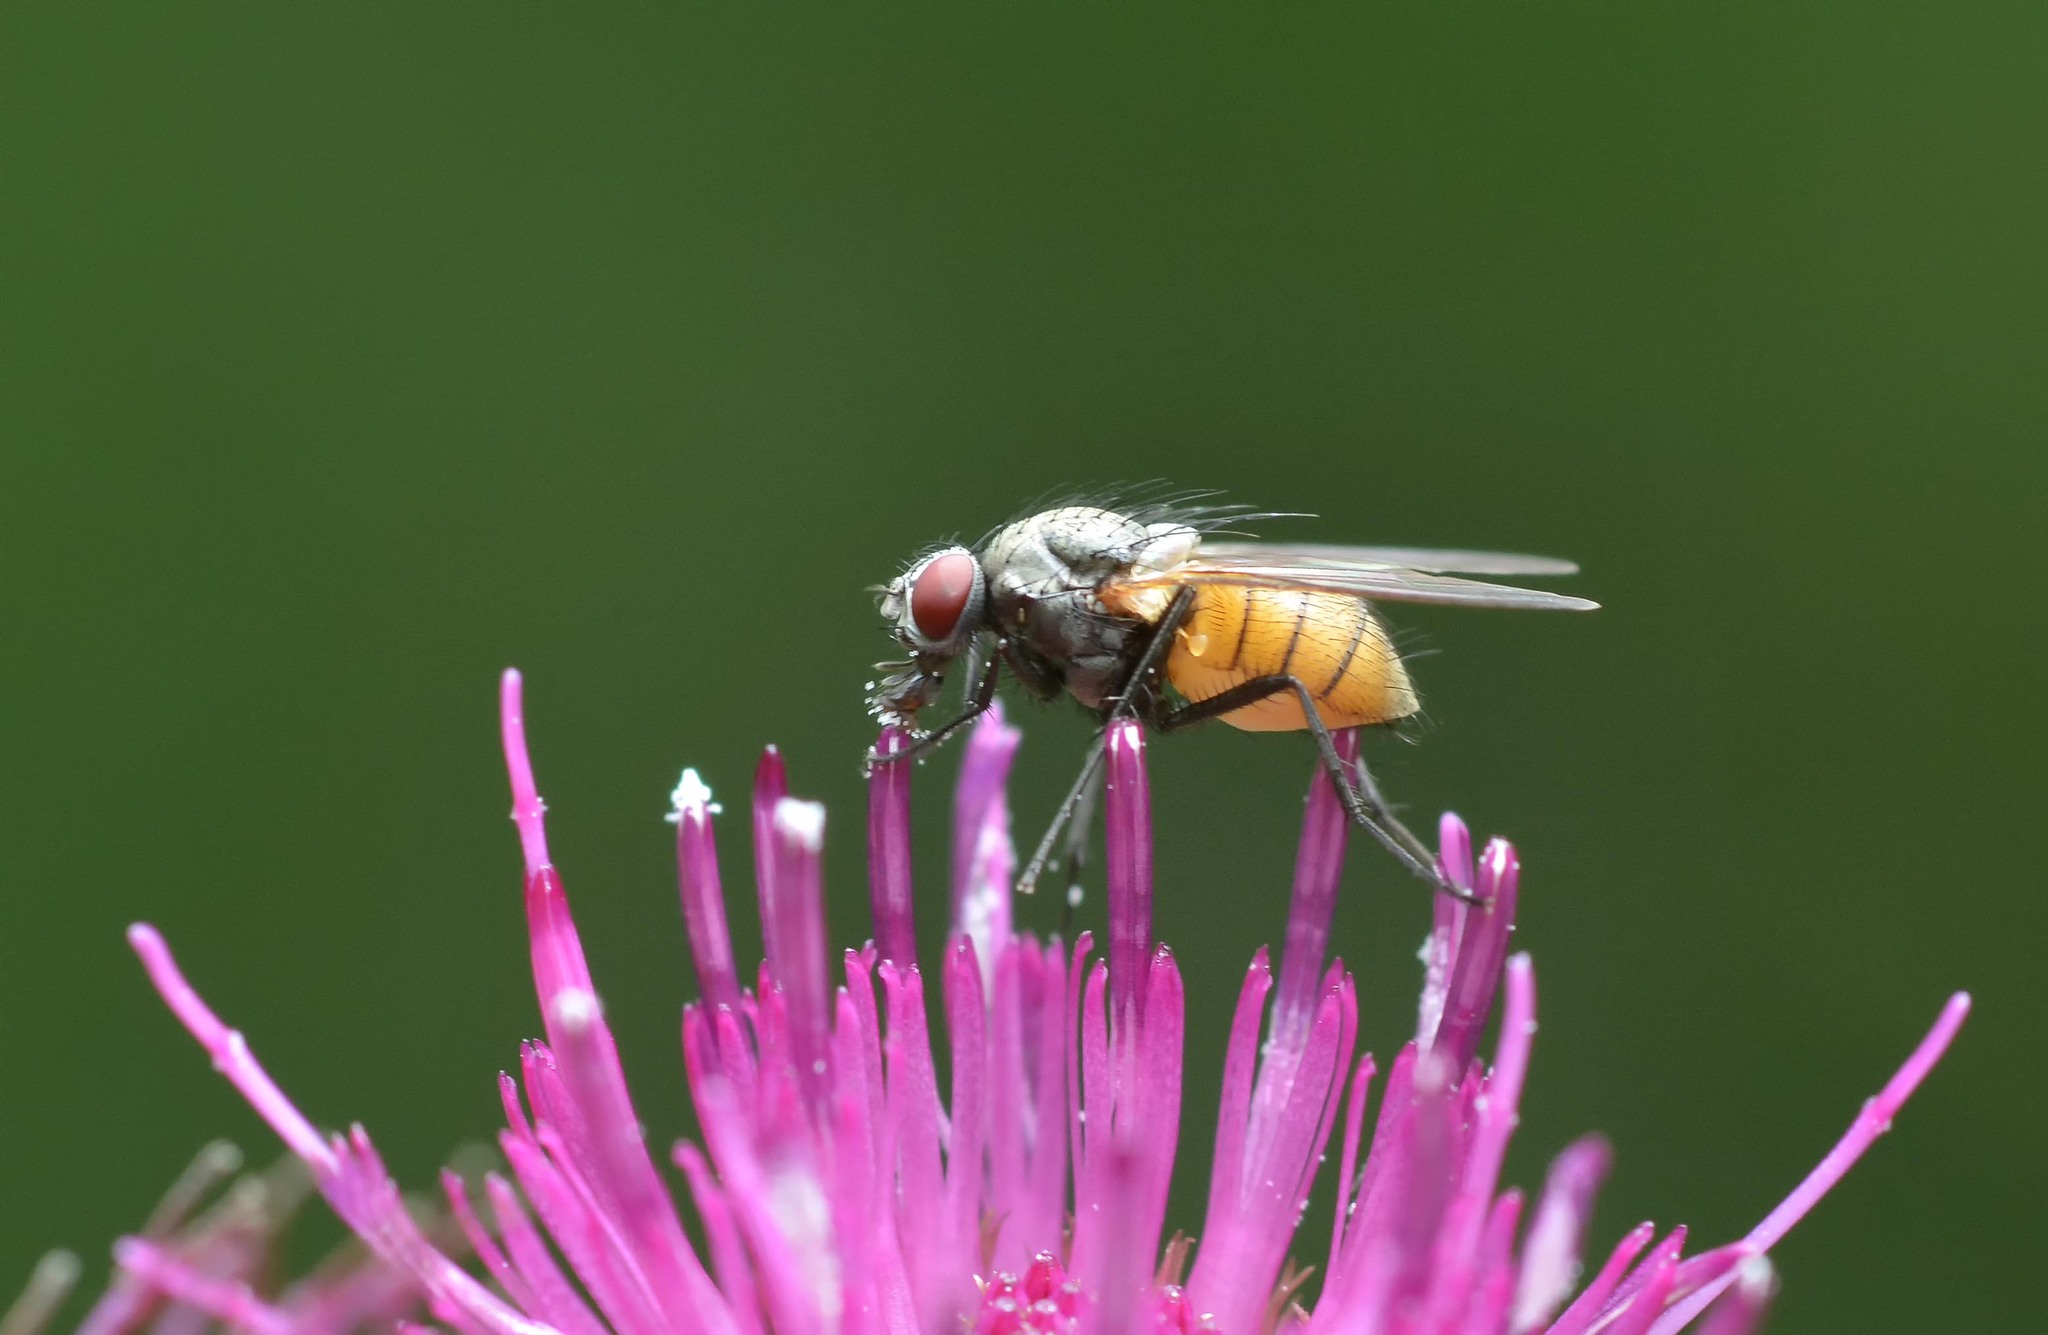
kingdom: Animalia
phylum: Arthropoda
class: Insecta
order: Diptera
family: Muscidae
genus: Thricops
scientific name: Thricops semicinereus
